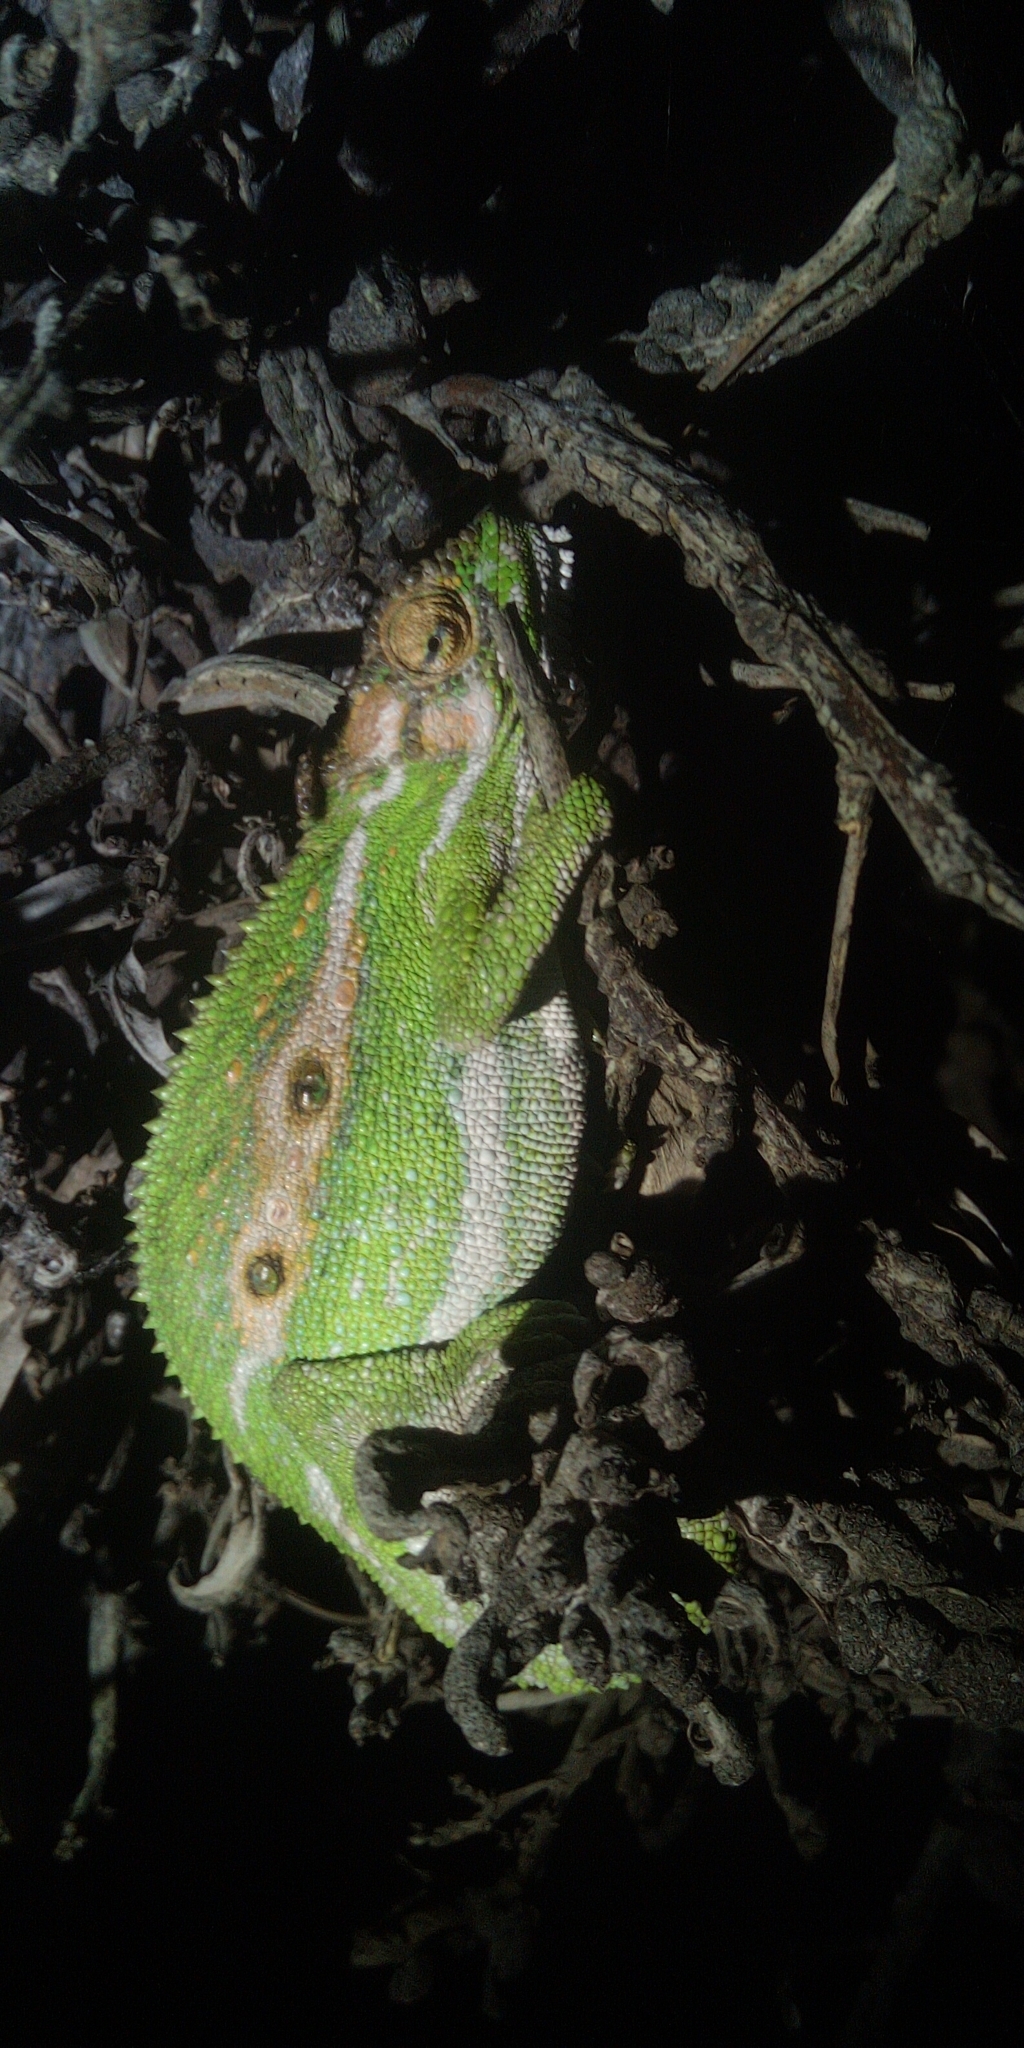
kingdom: Animalia
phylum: Chordata
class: Squamata
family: Chamaeleonidae
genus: Bradypodion
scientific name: Bradypodion pumilum
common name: Cape dwarf chameleon
